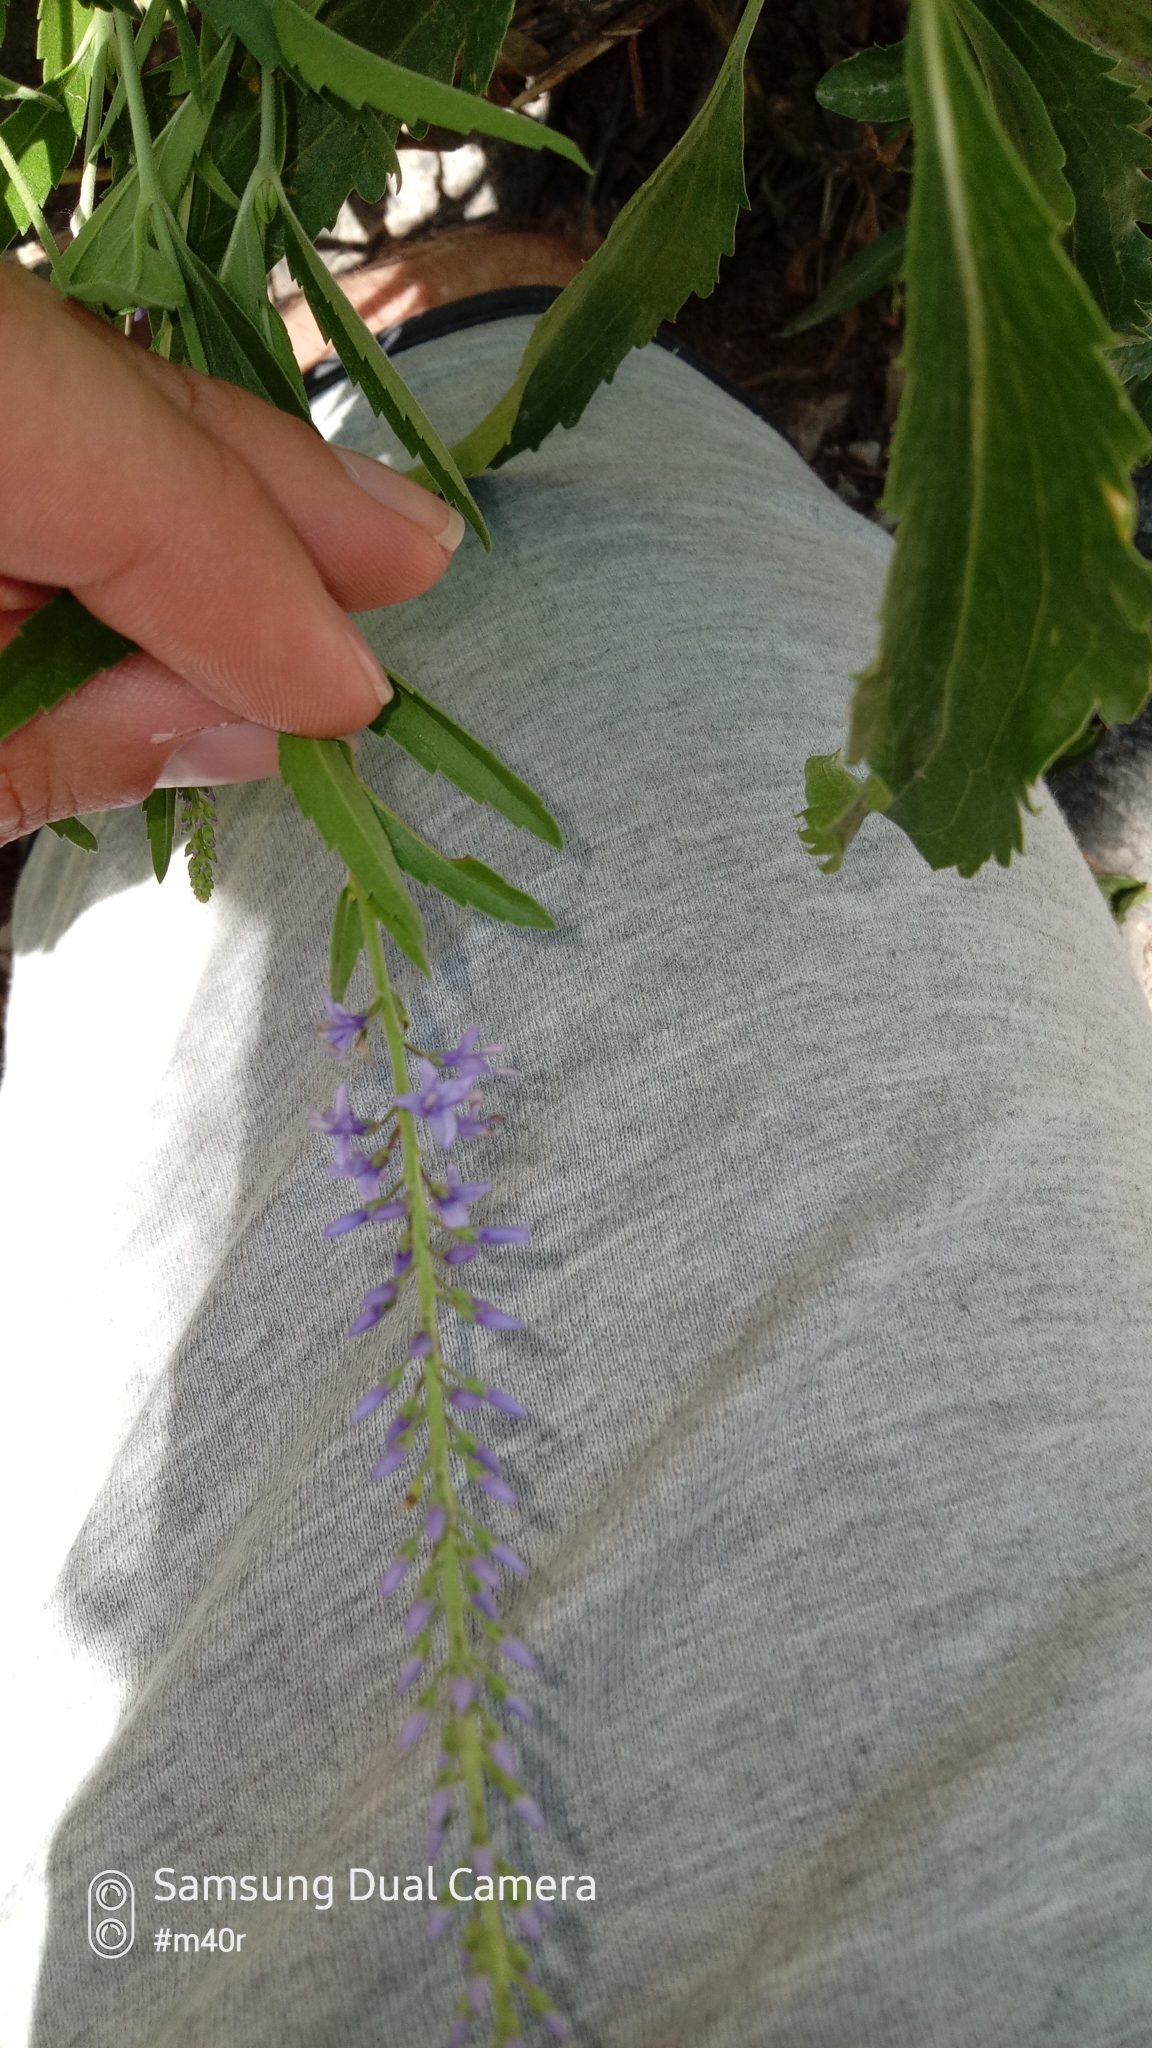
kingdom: Plantae
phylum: Tracheophyta
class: Magnoliopsida
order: Lamiales
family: Plantaginaceae
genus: Veronica
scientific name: Veronica spuria
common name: Bastard speedwell
